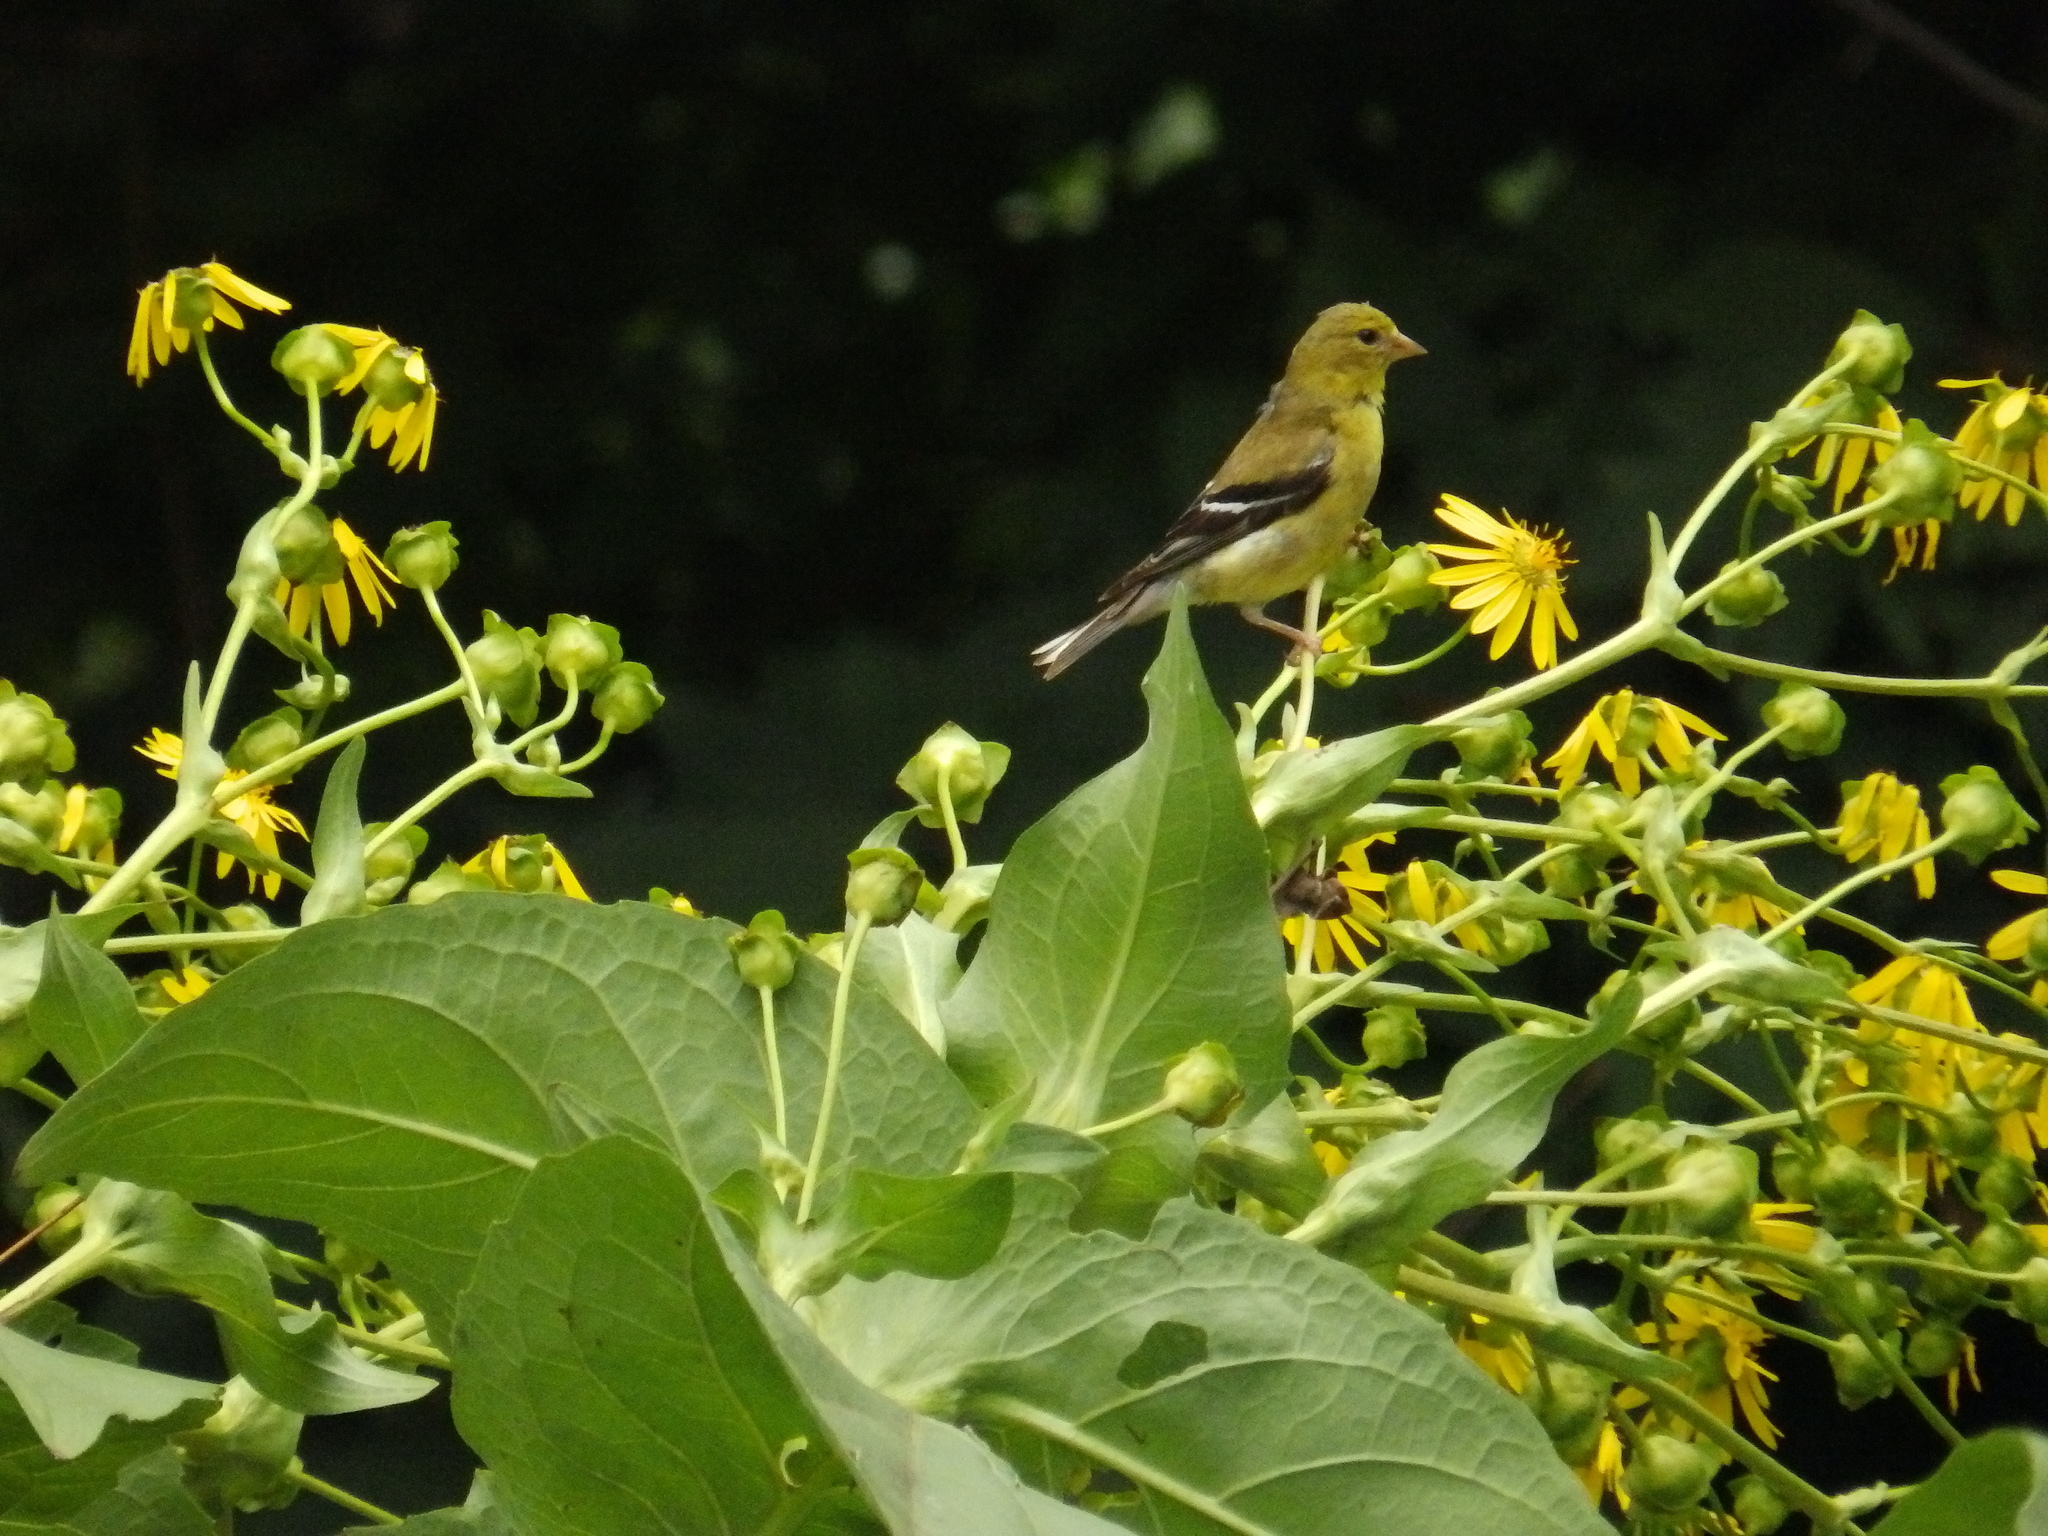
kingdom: Animalia
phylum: Chordata
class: Aves
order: Passeriformes
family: Fringillidae
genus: Spinus
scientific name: Spinus tristis
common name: American goldfinch
